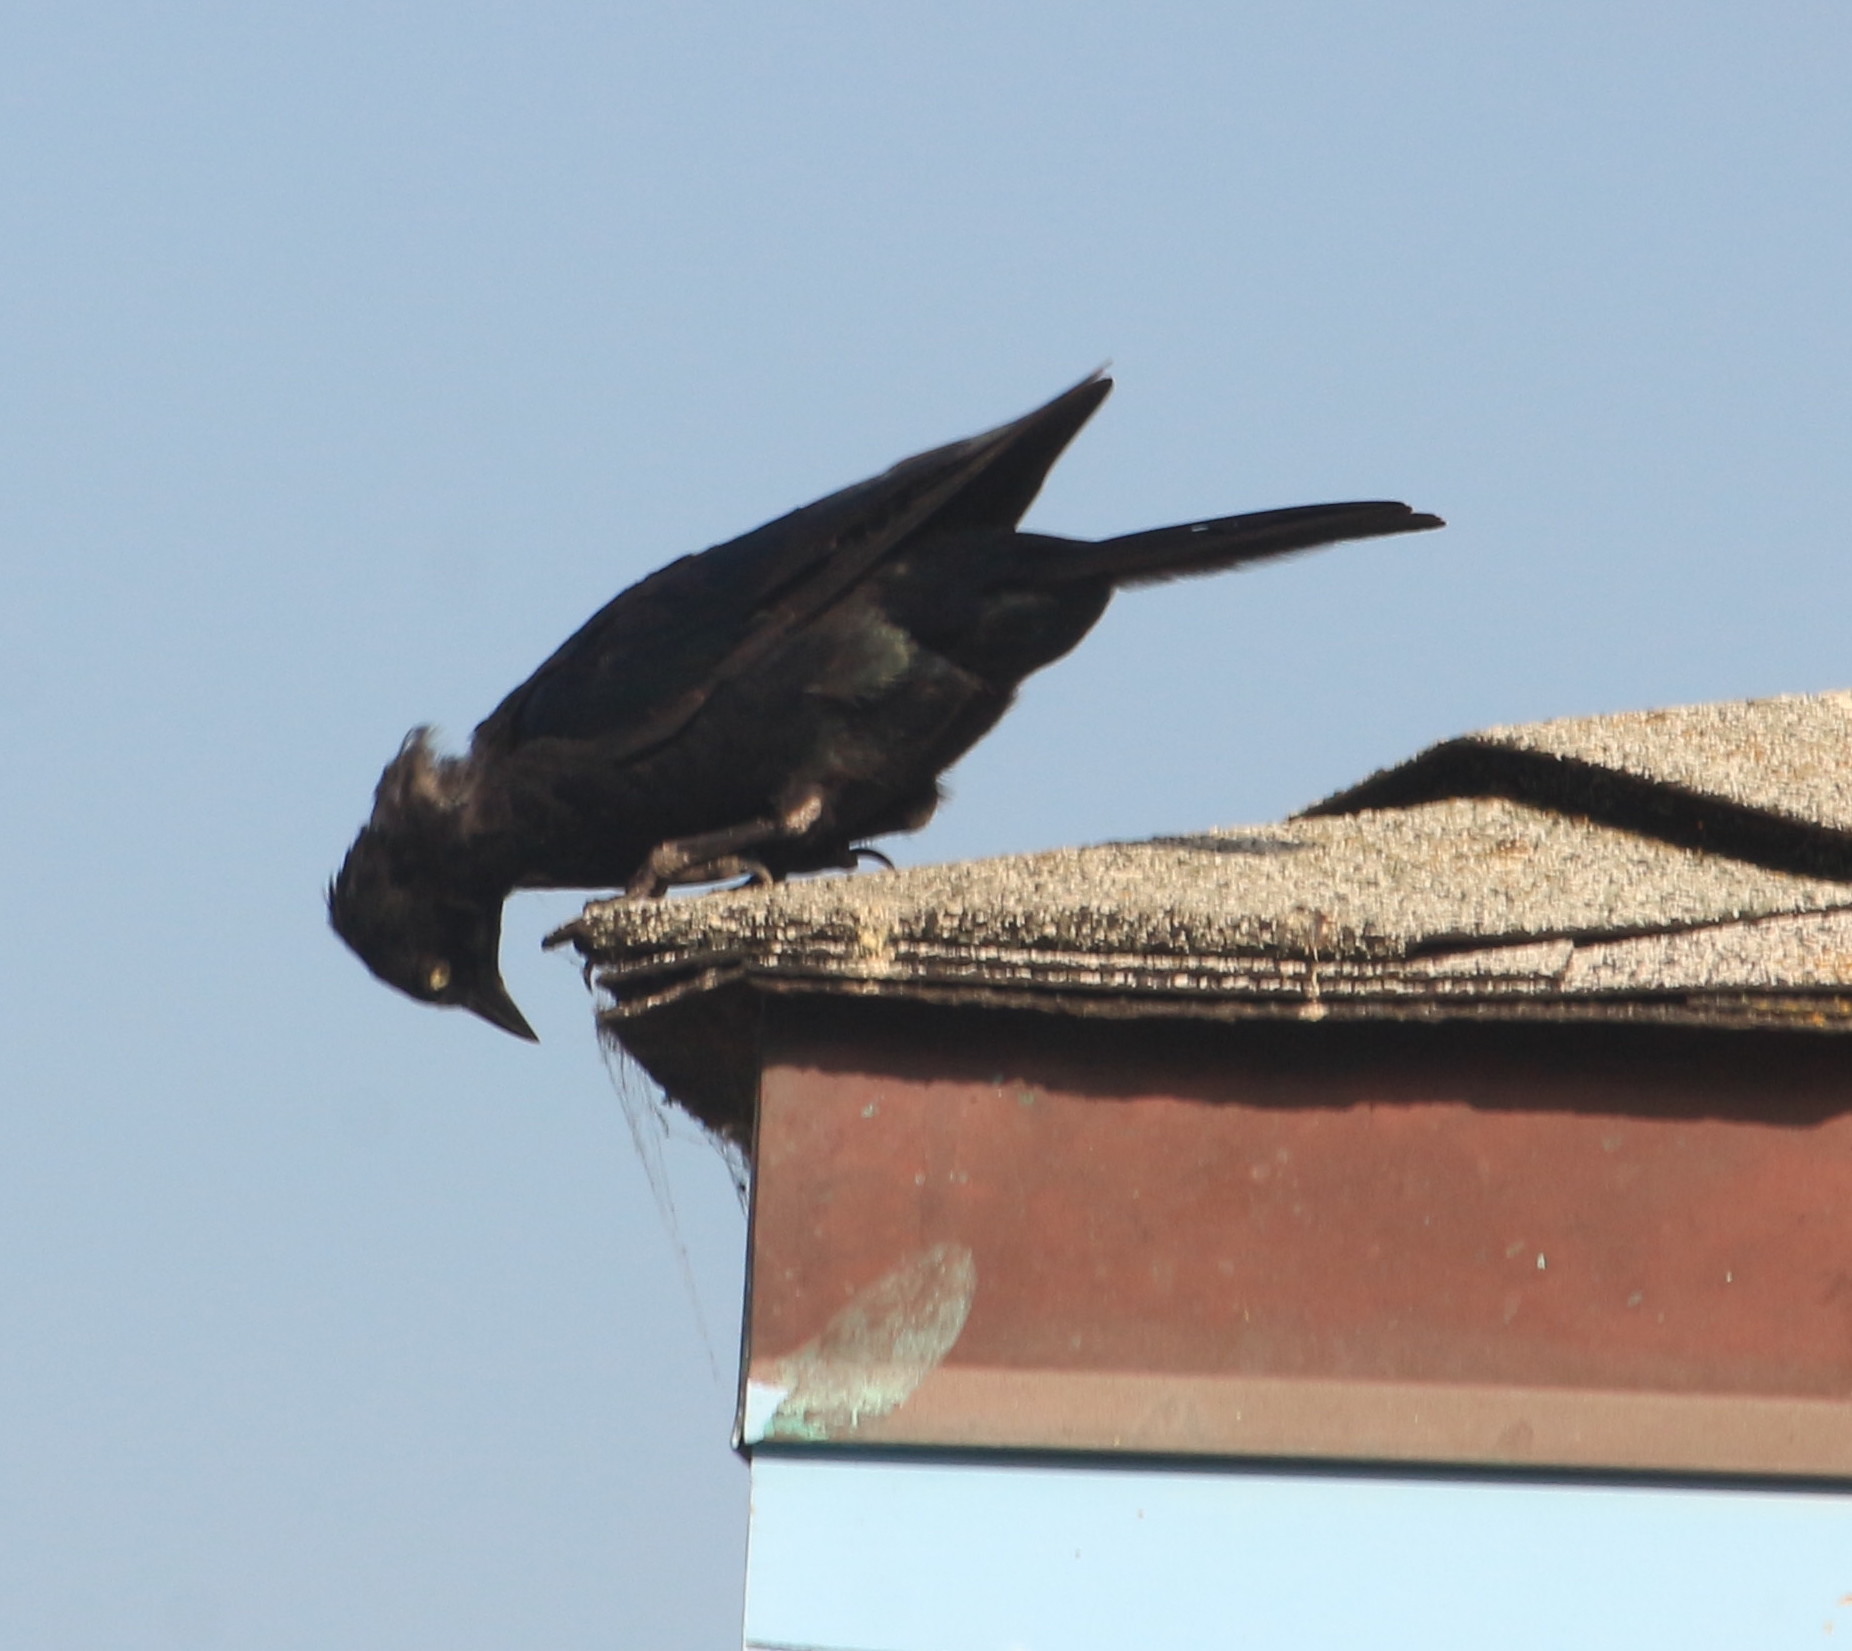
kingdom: Animalia
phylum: Chordata
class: Aves
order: Passeriformes
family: Icteridae
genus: Euphagus
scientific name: Euphagus cyanocephalus
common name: Brewer's blackbird
